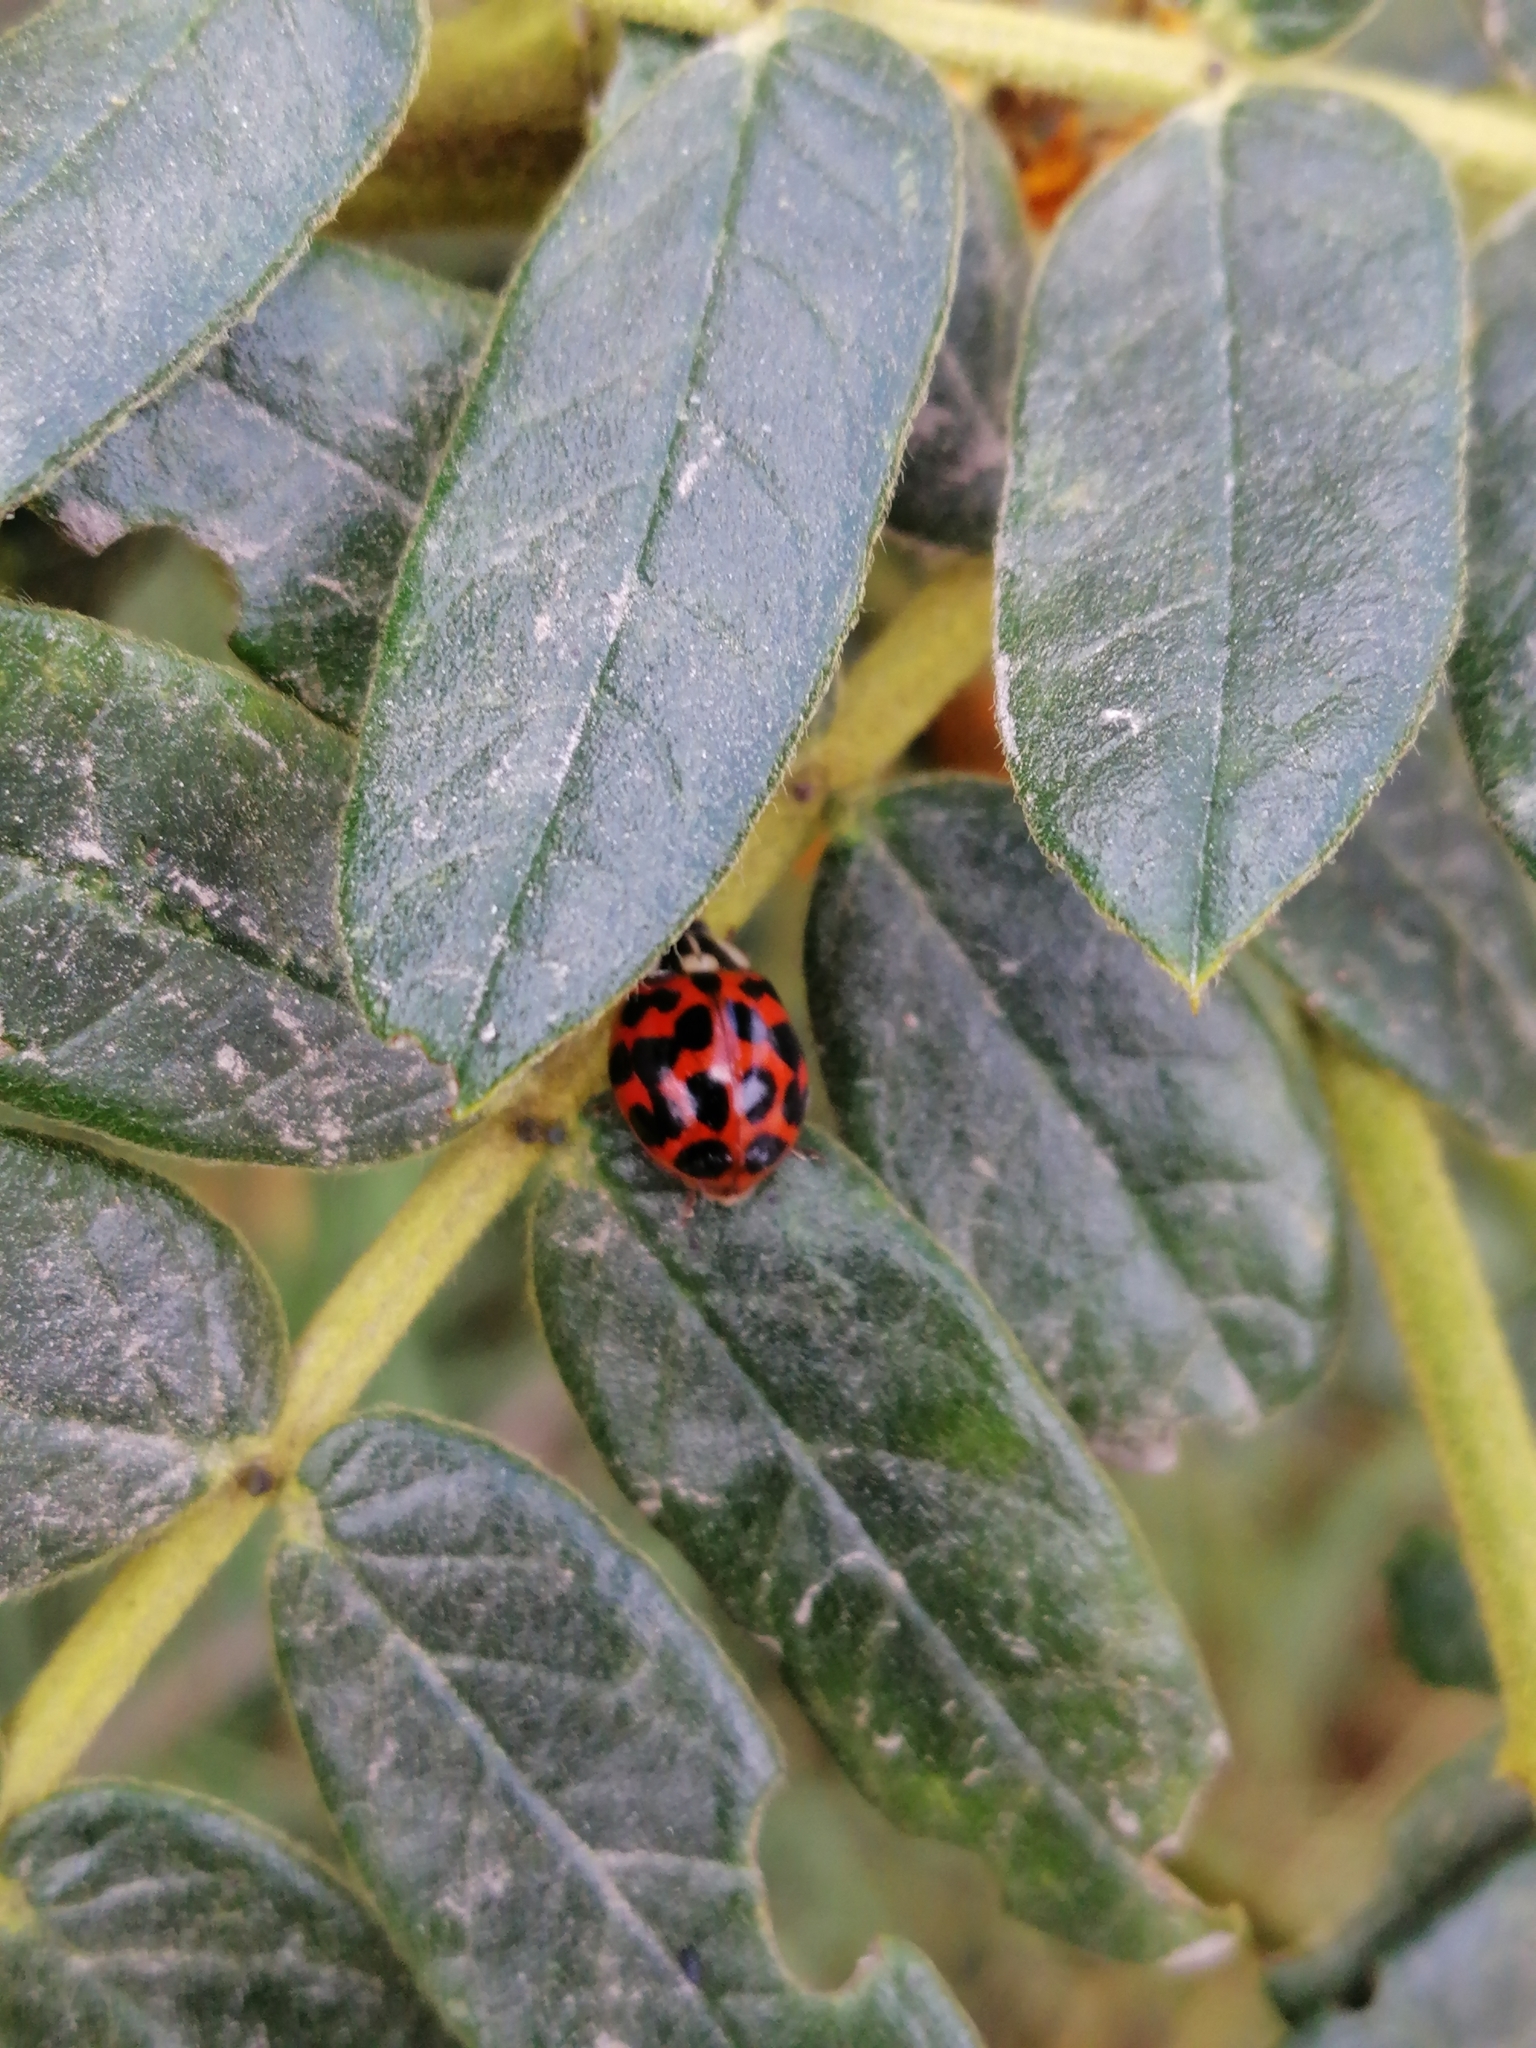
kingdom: Animalia
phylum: Arthropoda
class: Insecta
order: Coleoptera
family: Coccinellidae
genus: Harmonia
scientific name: Harmonia axyridis
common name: Harlequin ladybird
